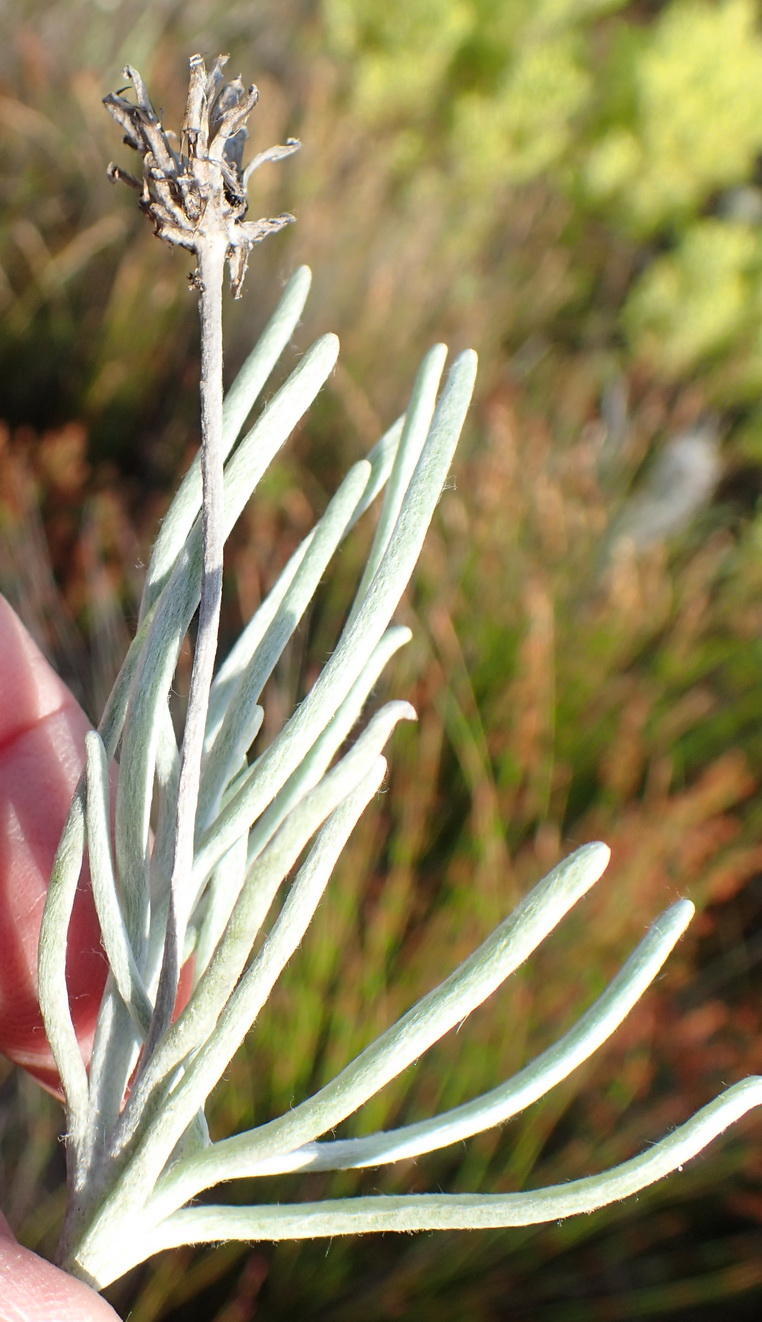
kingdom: Plantae
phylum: Tracheophyta
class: Magnoliopsida
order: Asterales
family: Asteraceae
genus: Syncarpha
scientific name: Syncarpha gnaphaloides
